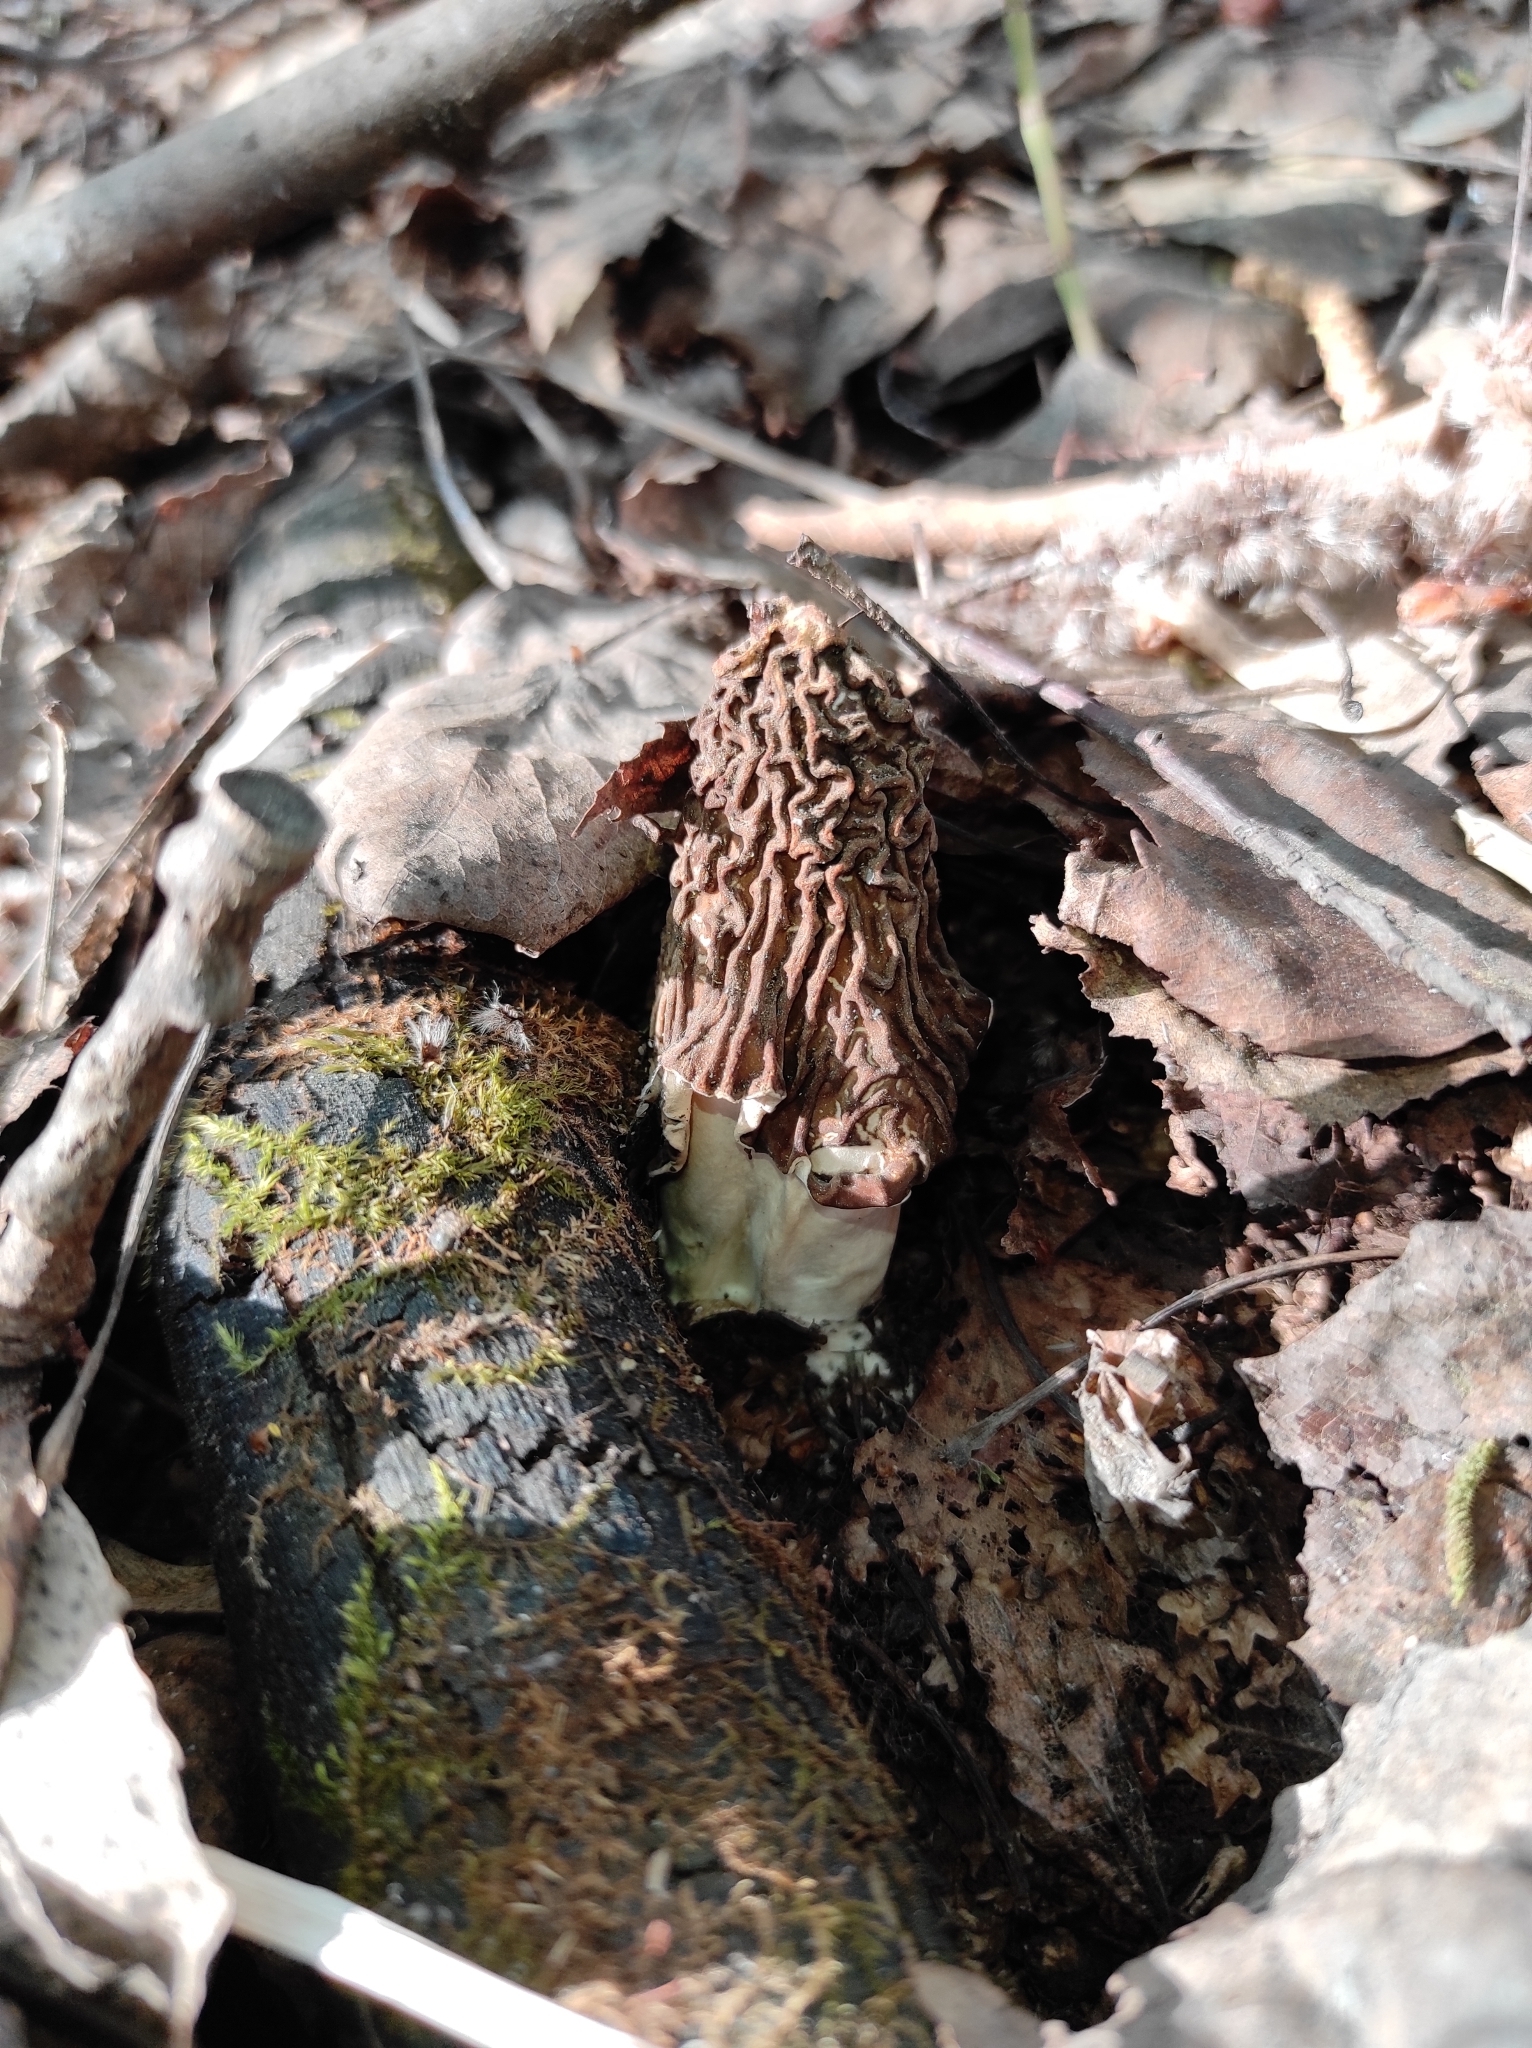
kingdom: Fungi
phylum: Ascomycota
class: Pezizomycetes
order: Pezizales
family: Morchellaceae
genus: Verpa
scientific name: Verpa bohemica
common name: Wrinkled thimble morel
